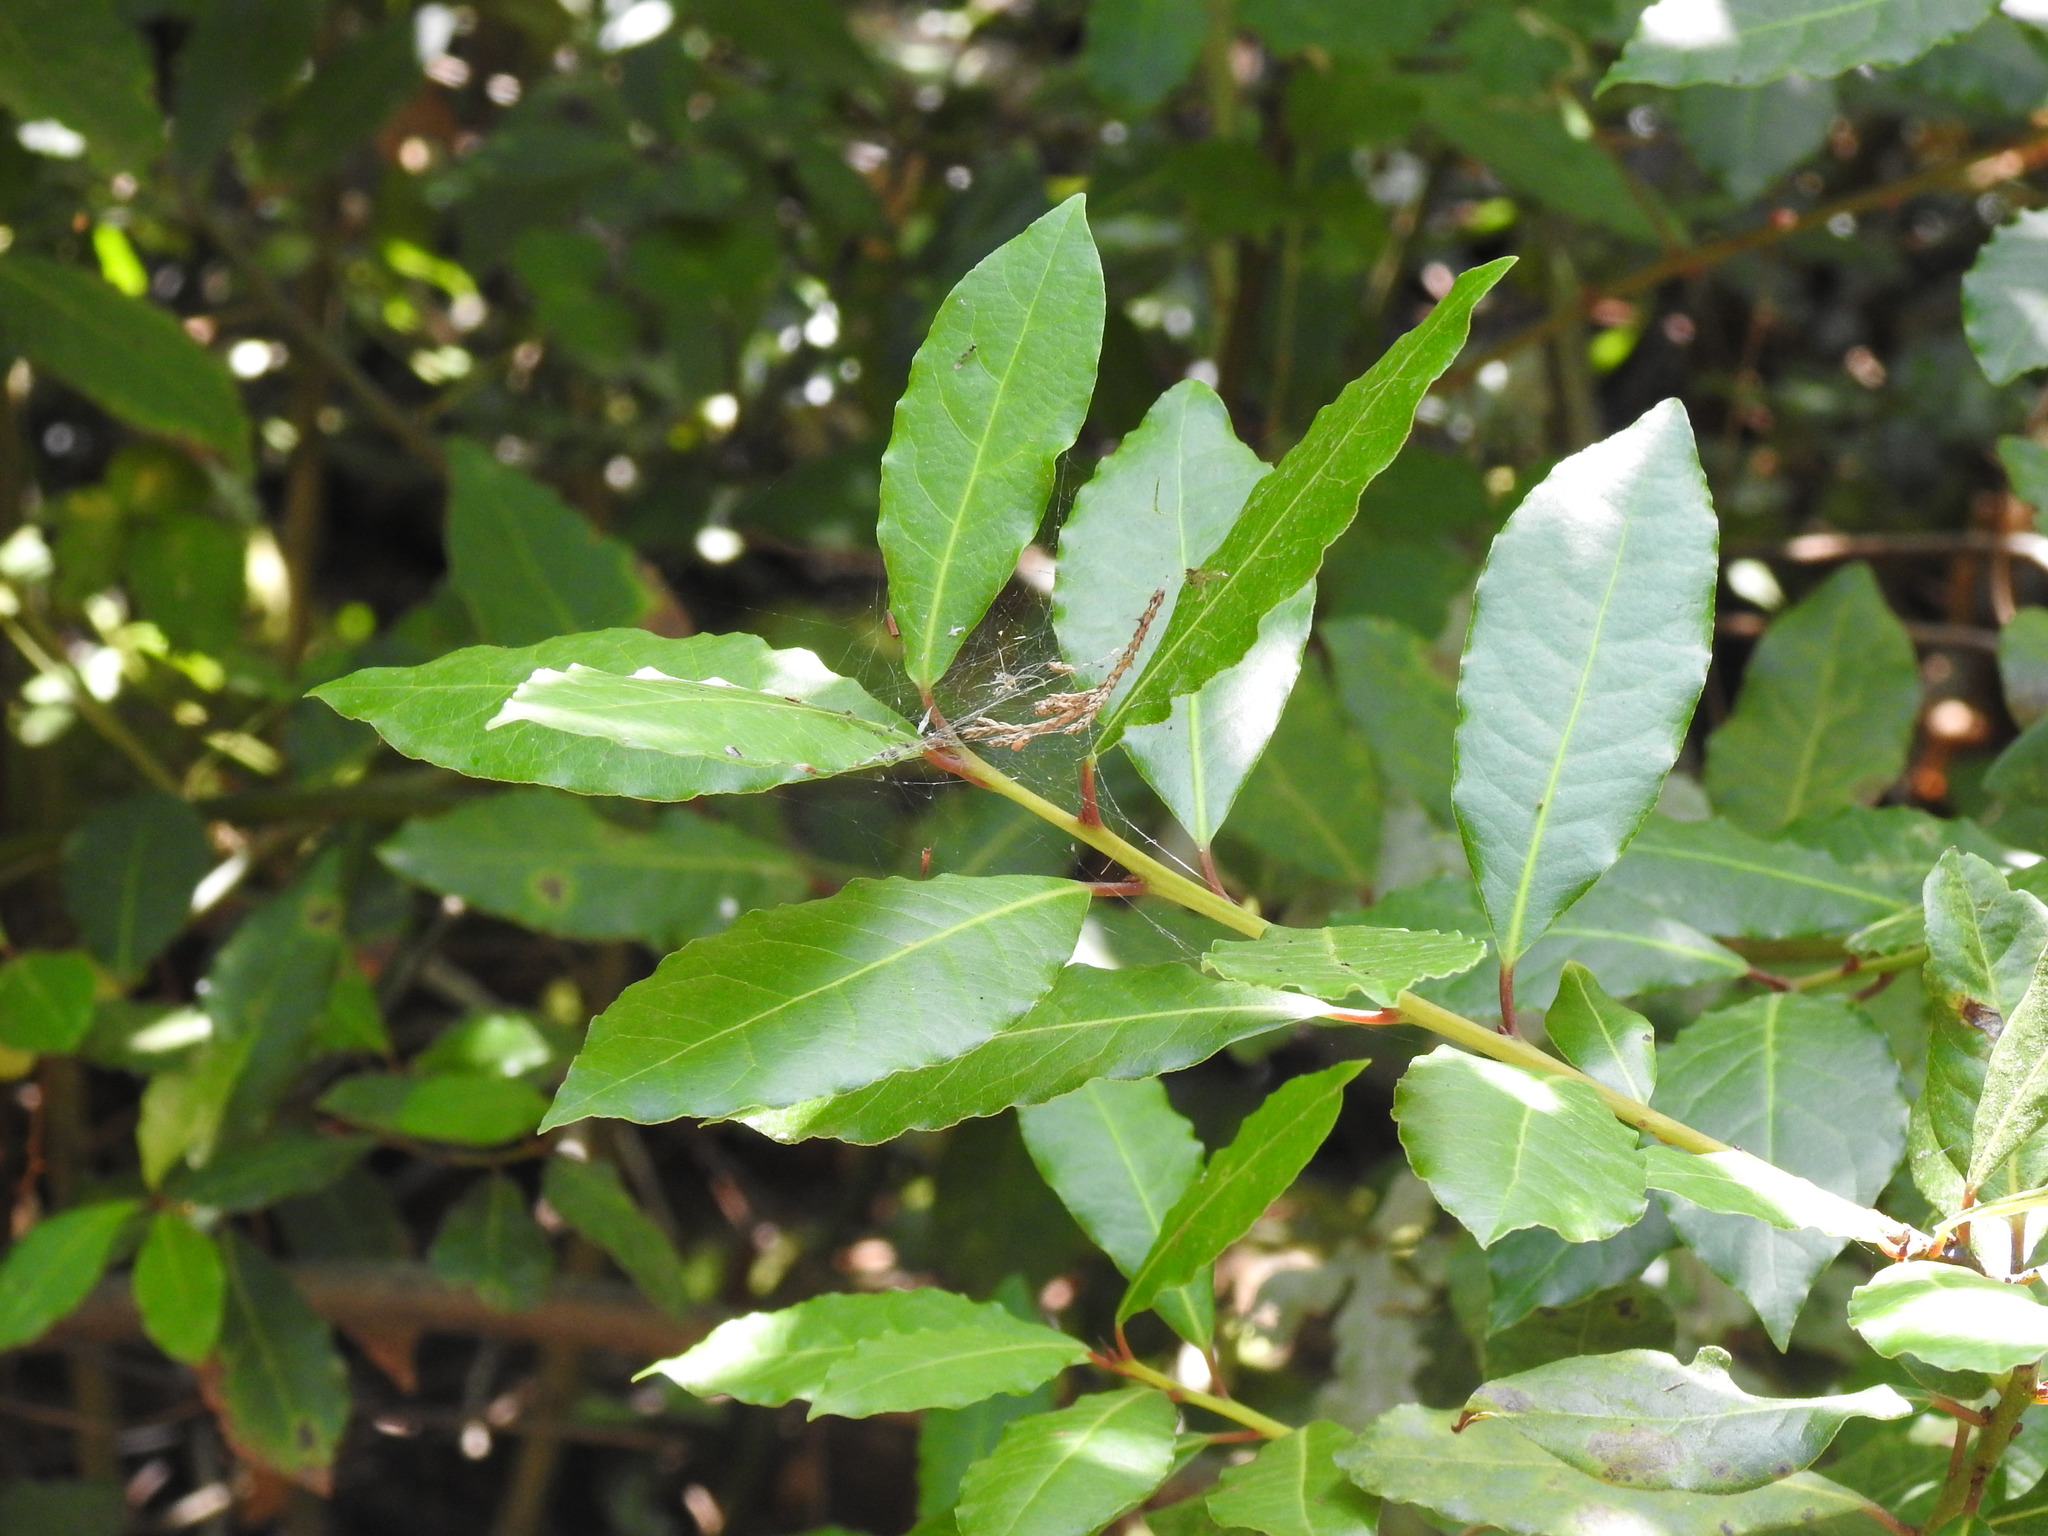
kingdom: Plantae
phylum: Tracheophyta
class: Magnoliopsida
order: Laurales
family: Lauraceae
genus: Laurus
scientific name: Laurus nobilis
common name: Bay
